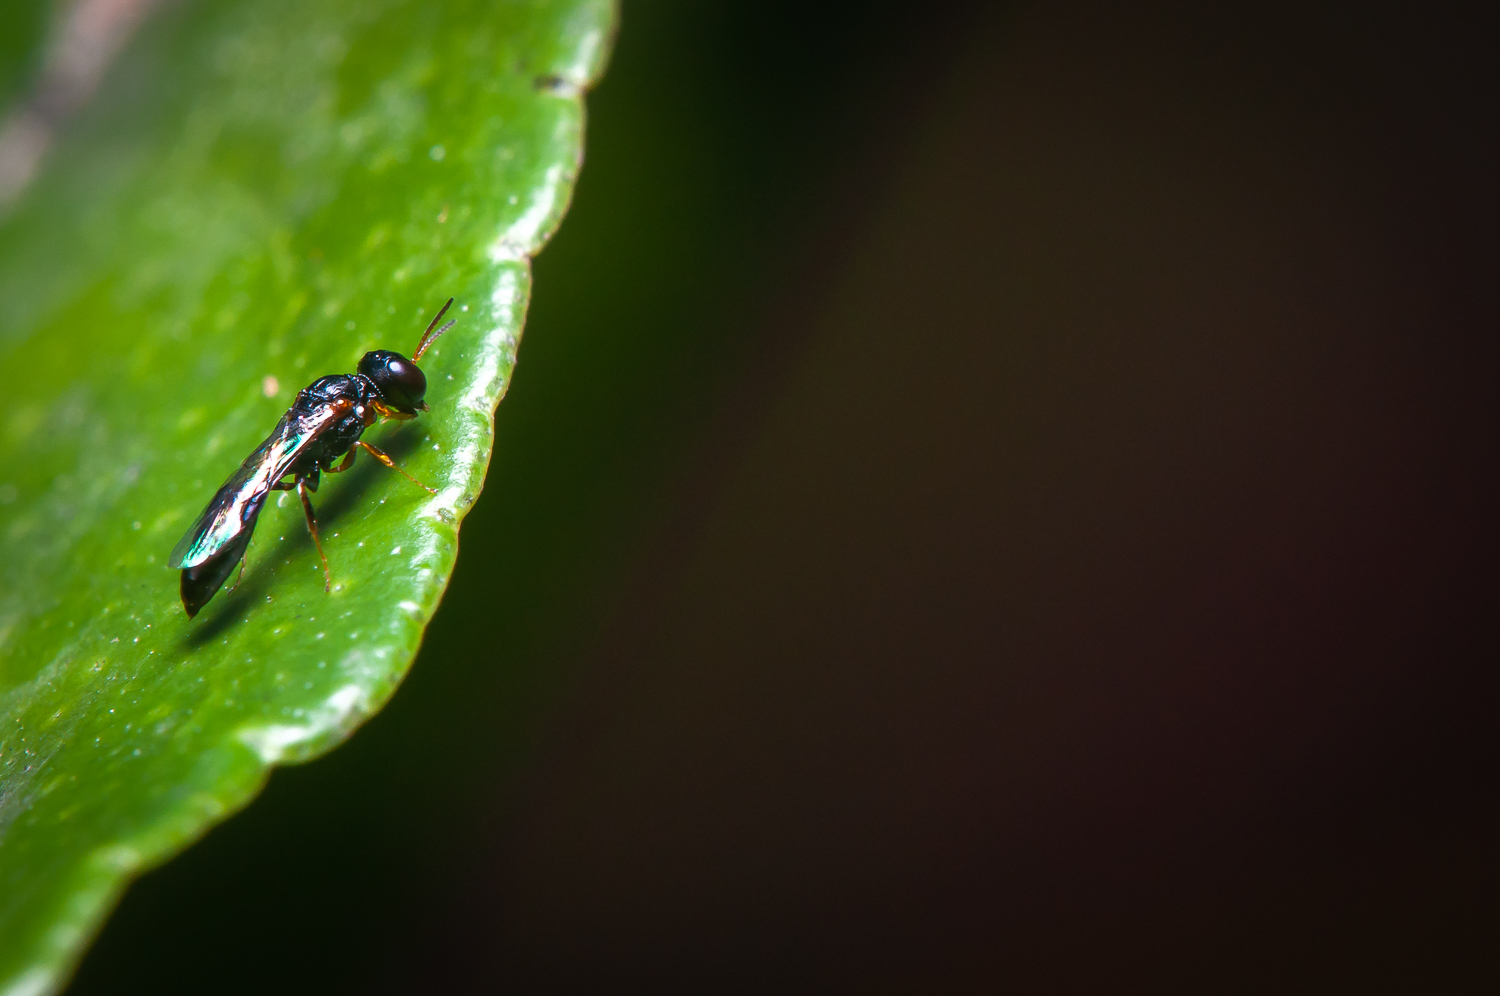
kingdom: Animalia
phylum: Arthropoda
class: Insecta
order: Hymenoptera
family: Crabronidae
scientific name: Crabronidae
